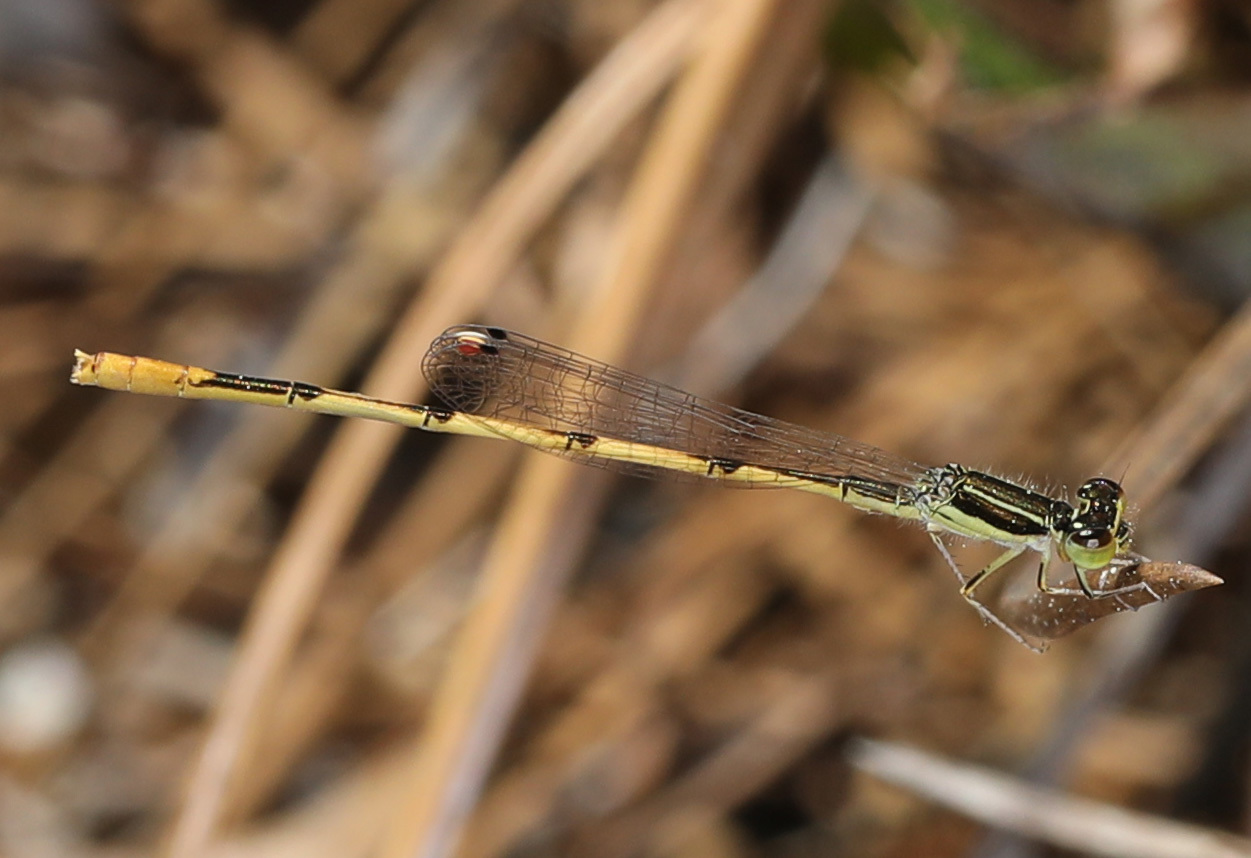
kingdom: Animalia
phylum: Arthropoda
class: Insecta
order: Odonata
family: Coenagrionidae
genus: Ischnura
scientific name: Ischnura hastata
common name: Citrine forktail
